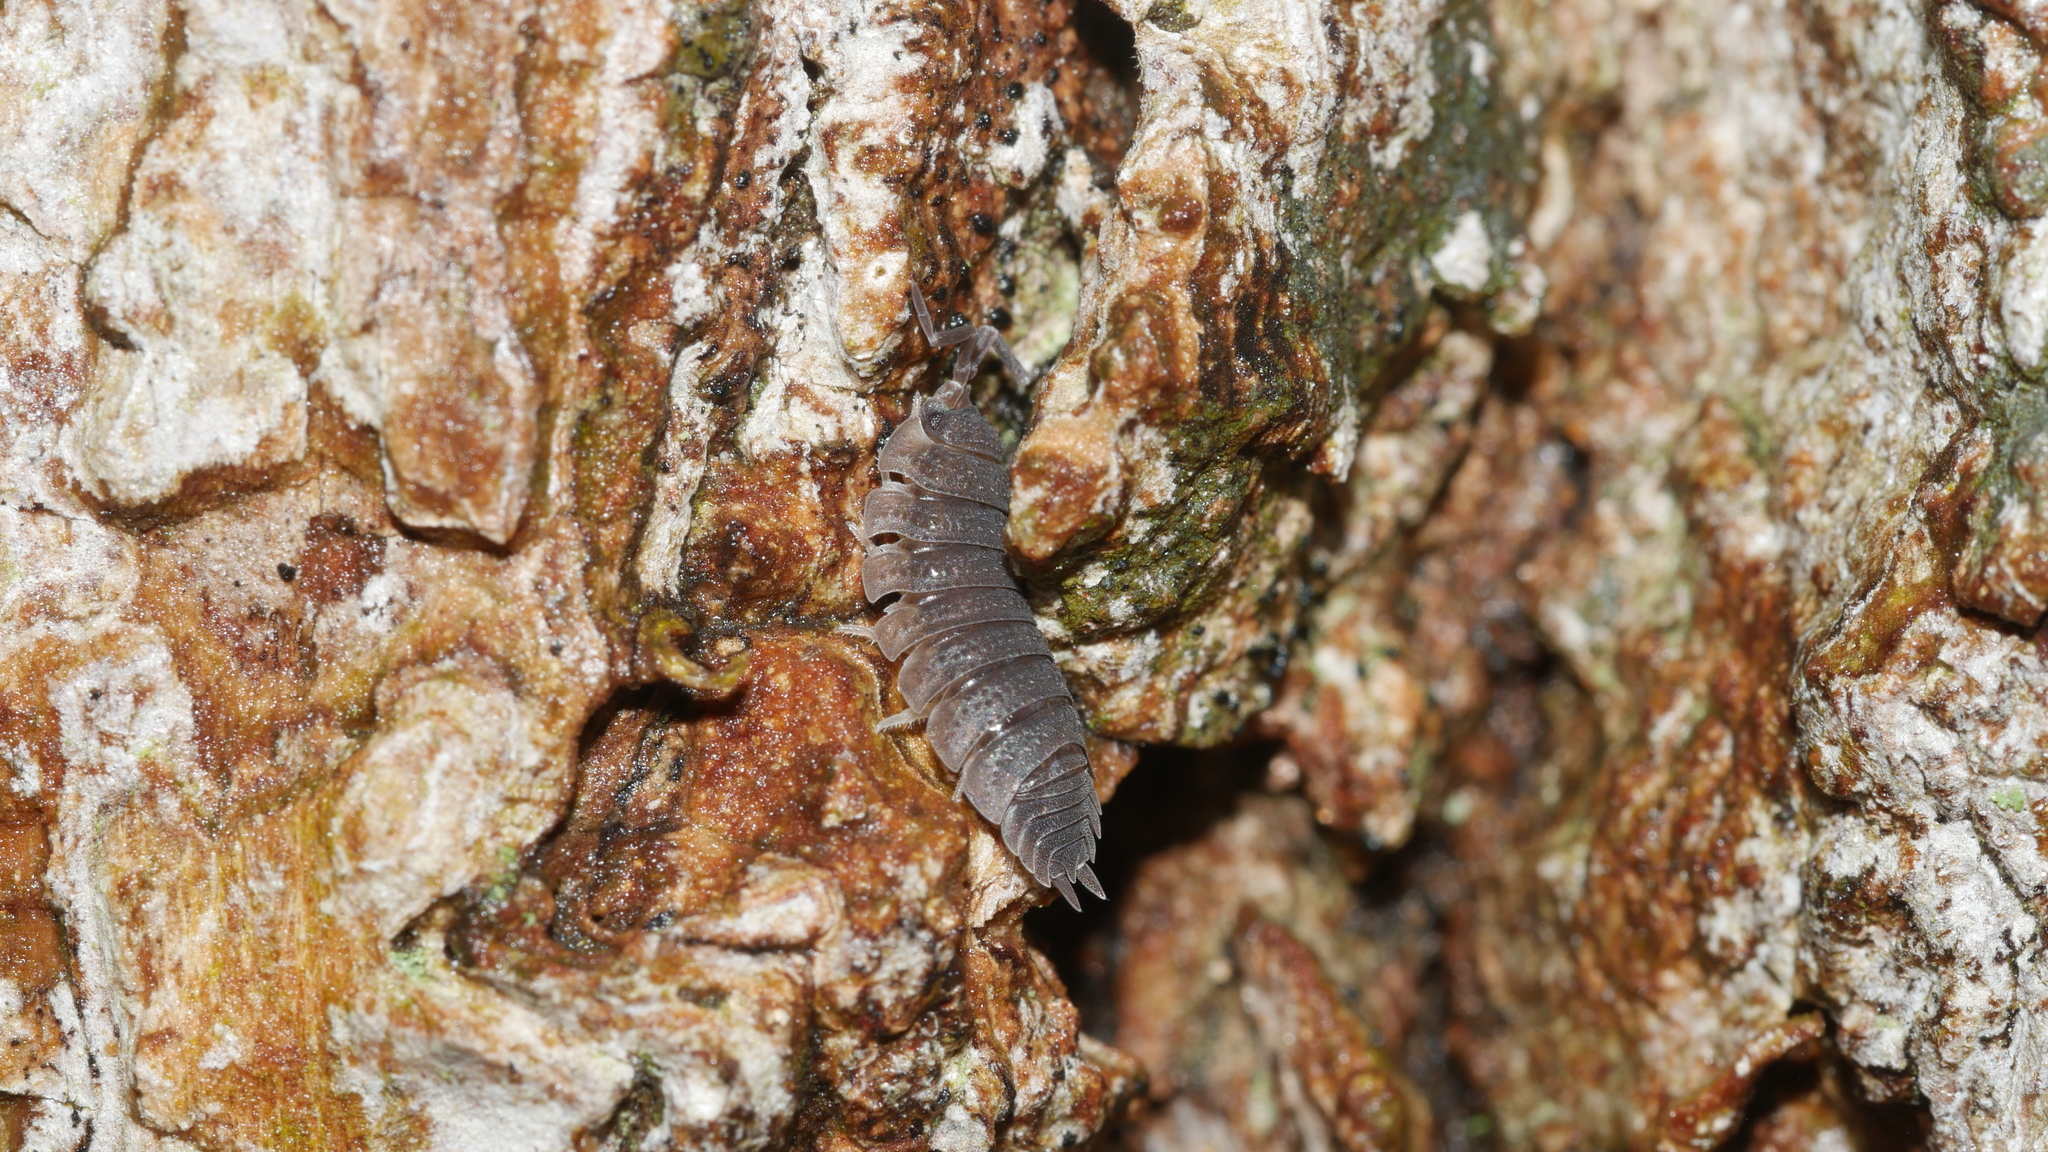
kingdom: Animalia
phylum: Arthropoda
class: Malacostraca
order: Isopoda
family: Porcellionidae
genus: Porcellio
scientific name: Porcellio scaber
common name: Common rough woodlouse
